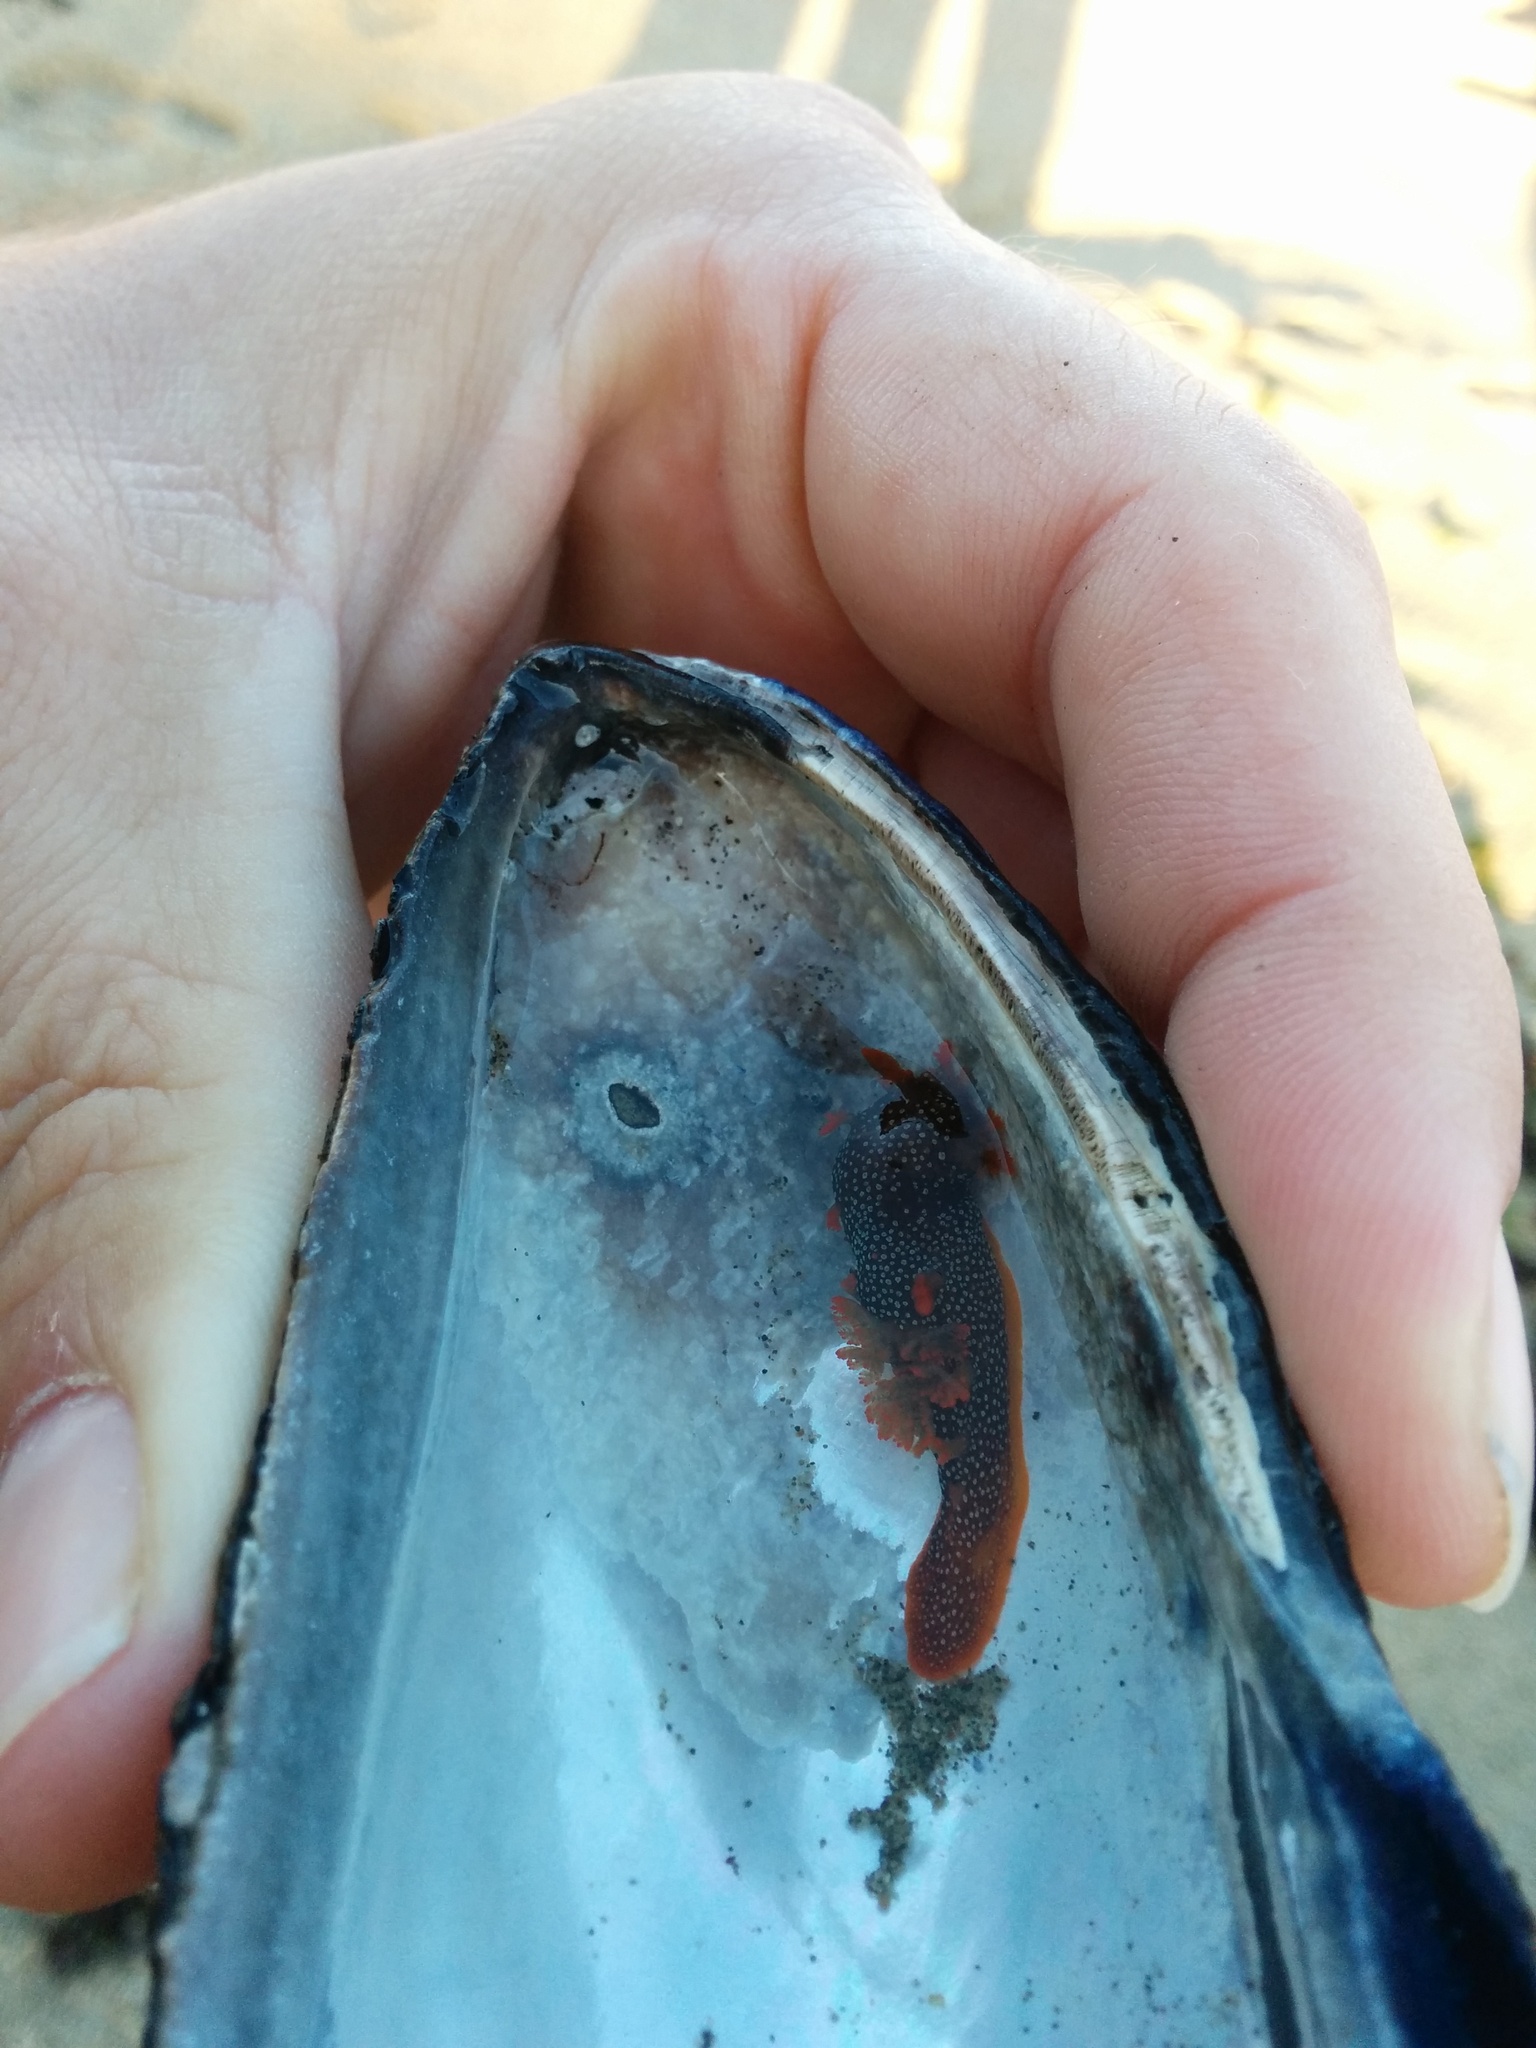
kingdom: Animalia
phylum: Mollusca
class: Gastropoda
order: Nudibranchia
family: Polyceridae
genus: Triopha
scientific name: Triopha maculata
